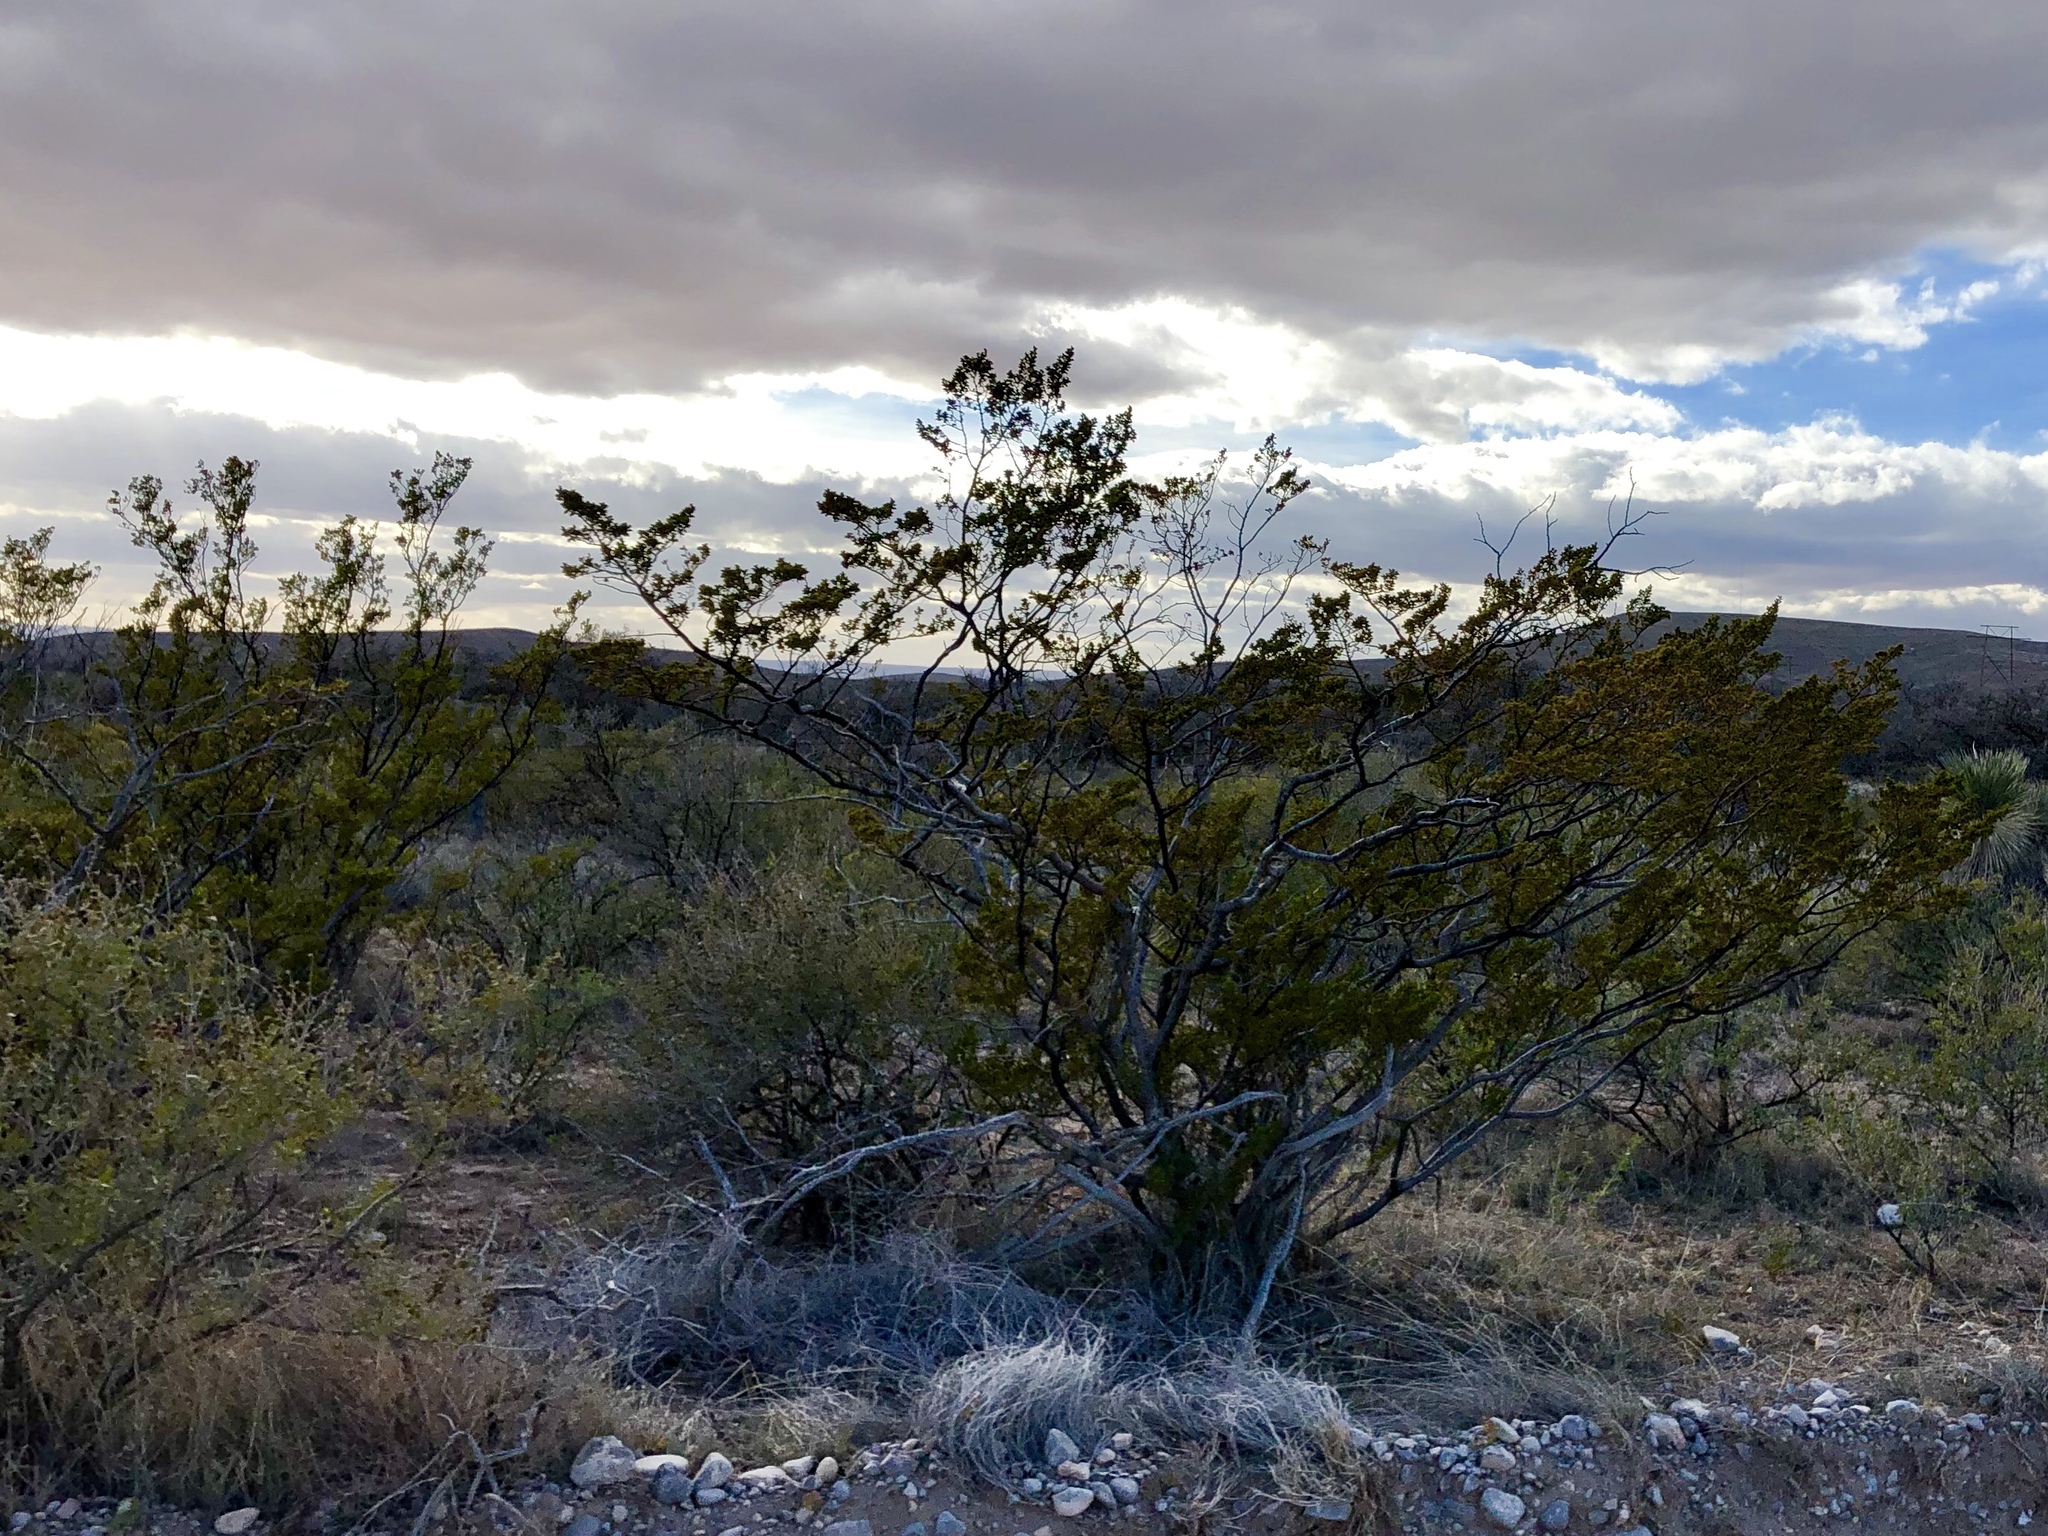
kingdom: Plantae
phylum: Tracheophyta
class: Magnoliopsida
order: Zygophyllales
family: Zygophyllaceae
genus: Larrea
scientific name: Larrea tridentata
